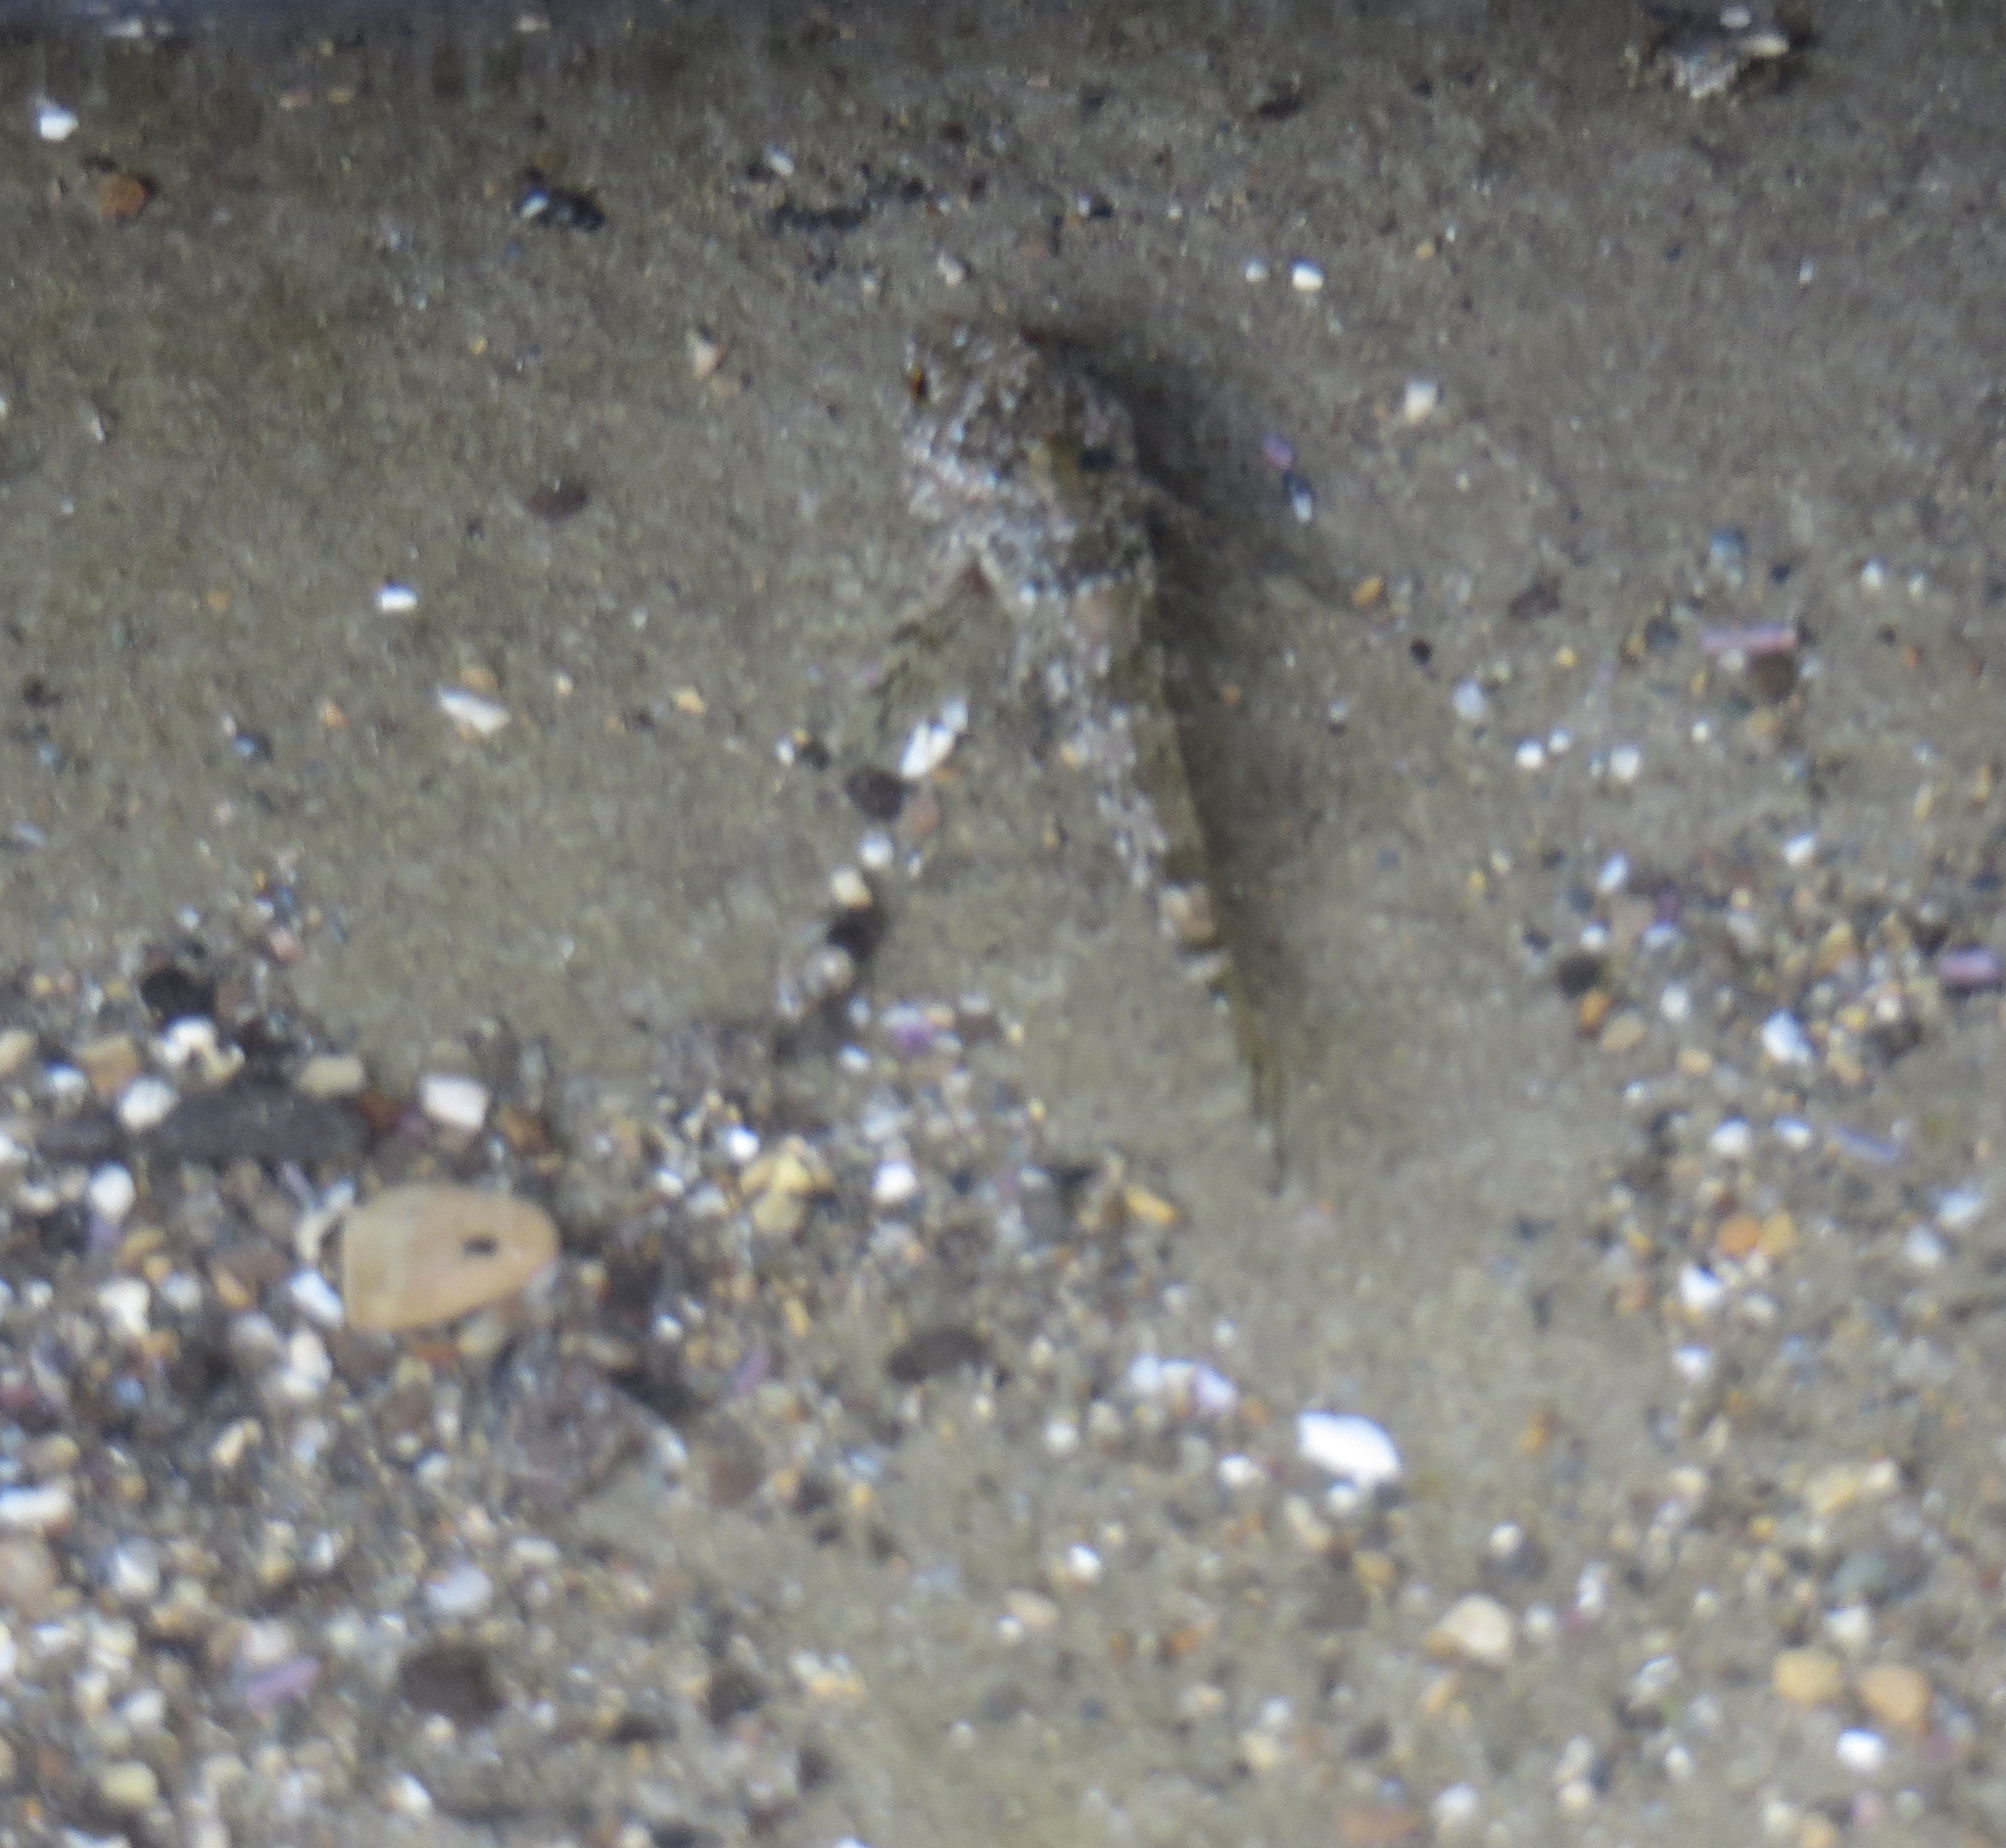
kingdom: Animalia
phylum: Chordata
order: Scorpaeniformes
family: Cottidae
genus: Clinocottus
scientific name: Clinocottus analis
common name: Woolly sculpin
